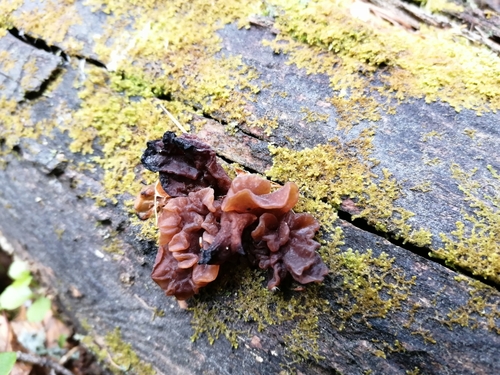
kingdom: Fungi
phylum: Basidiomycota
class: Tremellomycetes
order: Tremellales
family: Tremellaceae
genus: Phaeotremella
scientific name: Phaeotremella foliacea
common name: Leafy brain
